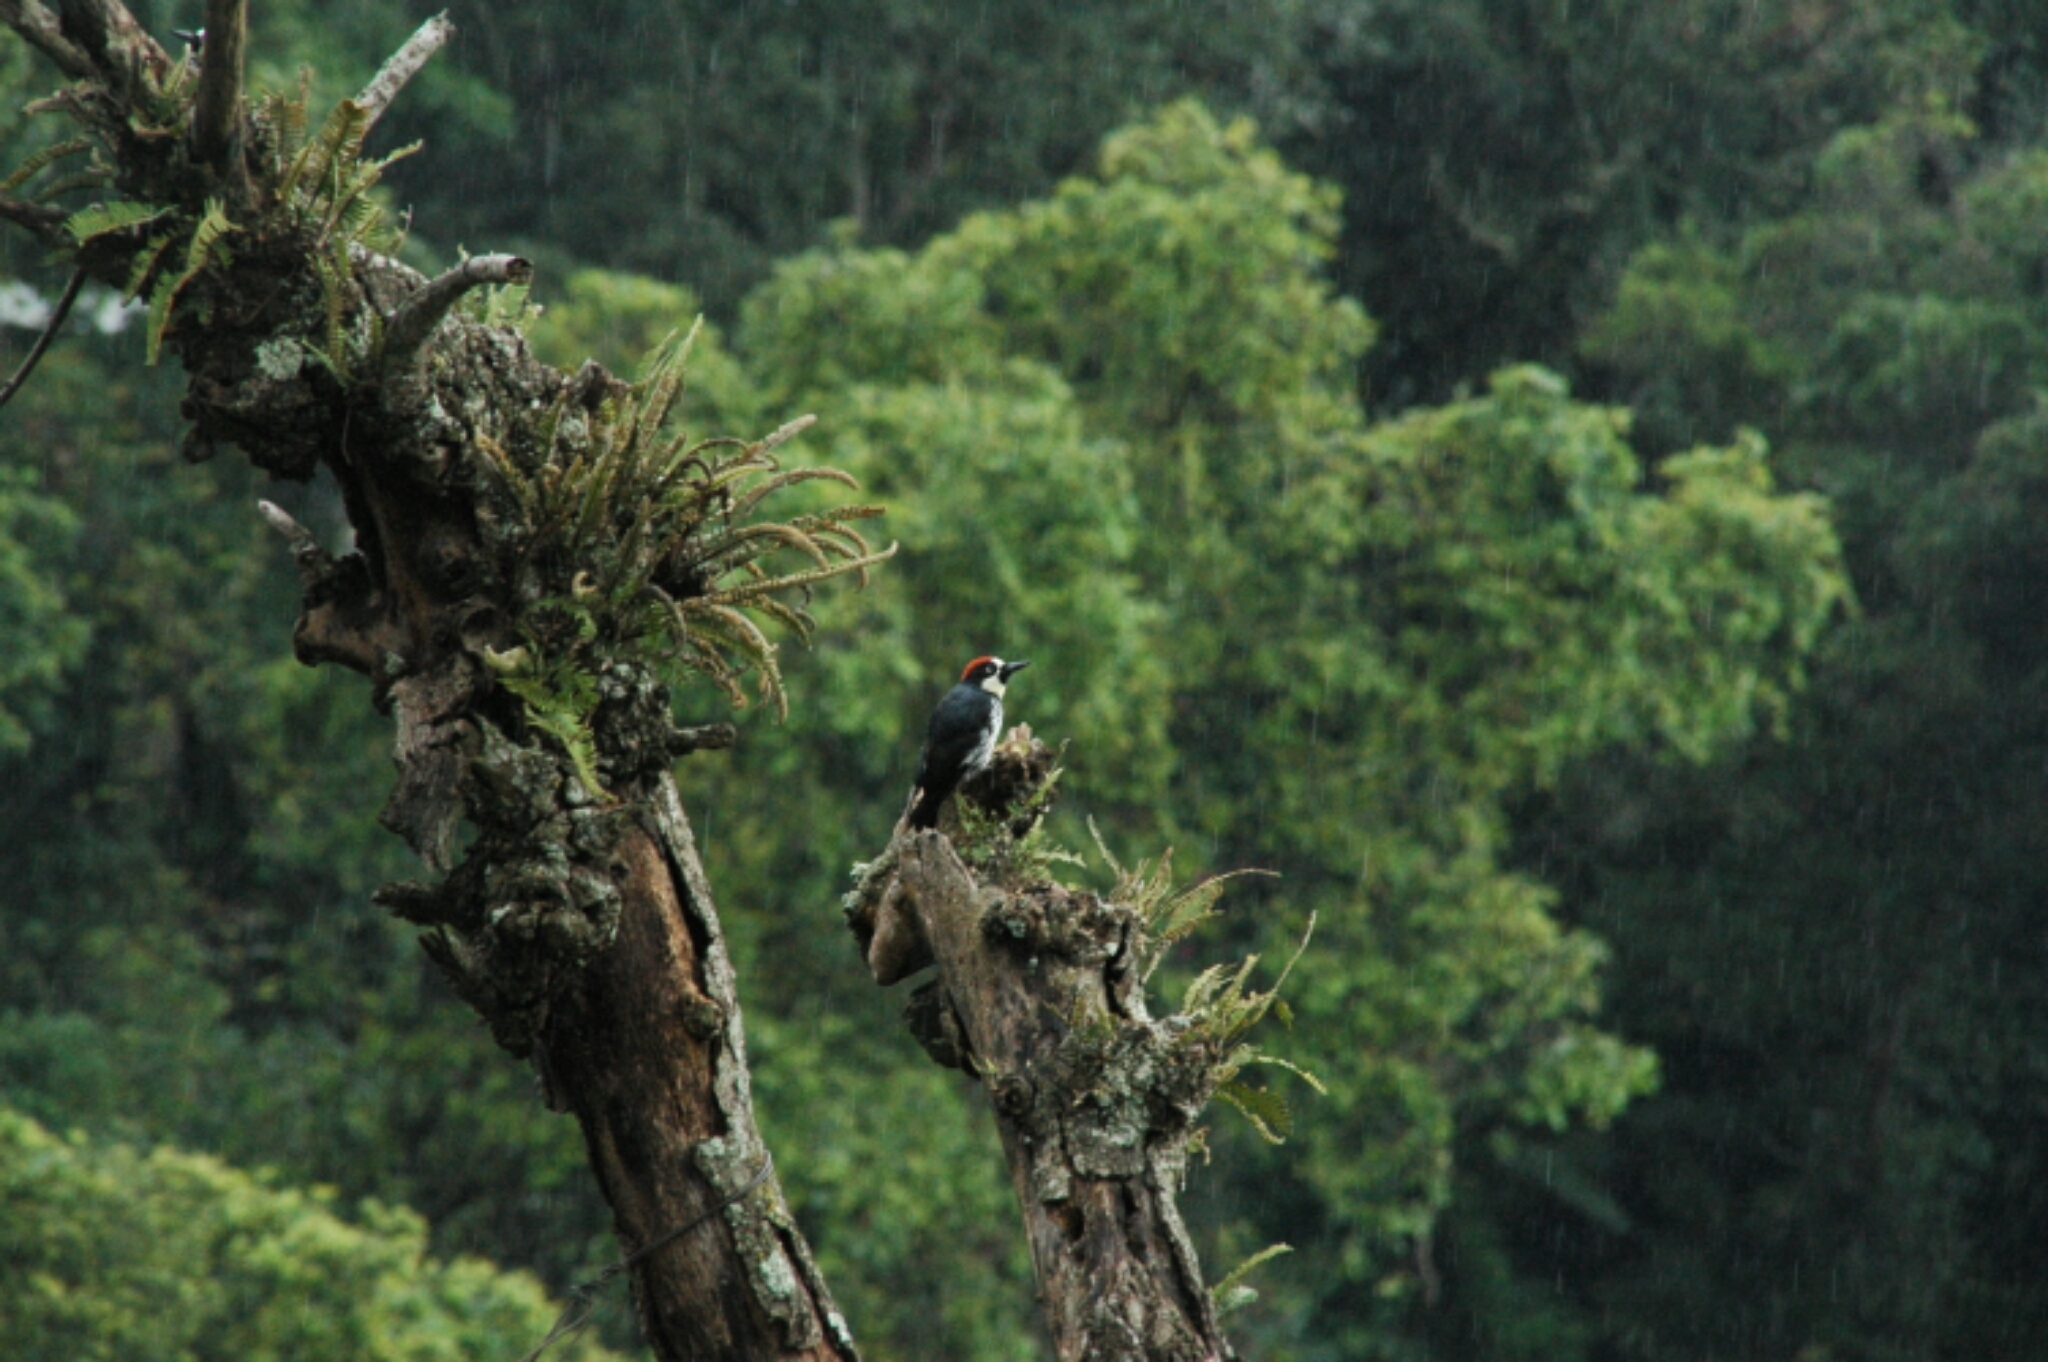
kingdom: Animalia
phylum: Chordata
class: Aves
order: Piciformes
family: Picidae
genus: Melanerpes
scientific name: Melanerpes formicivorus
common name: Acorn woodpecker
